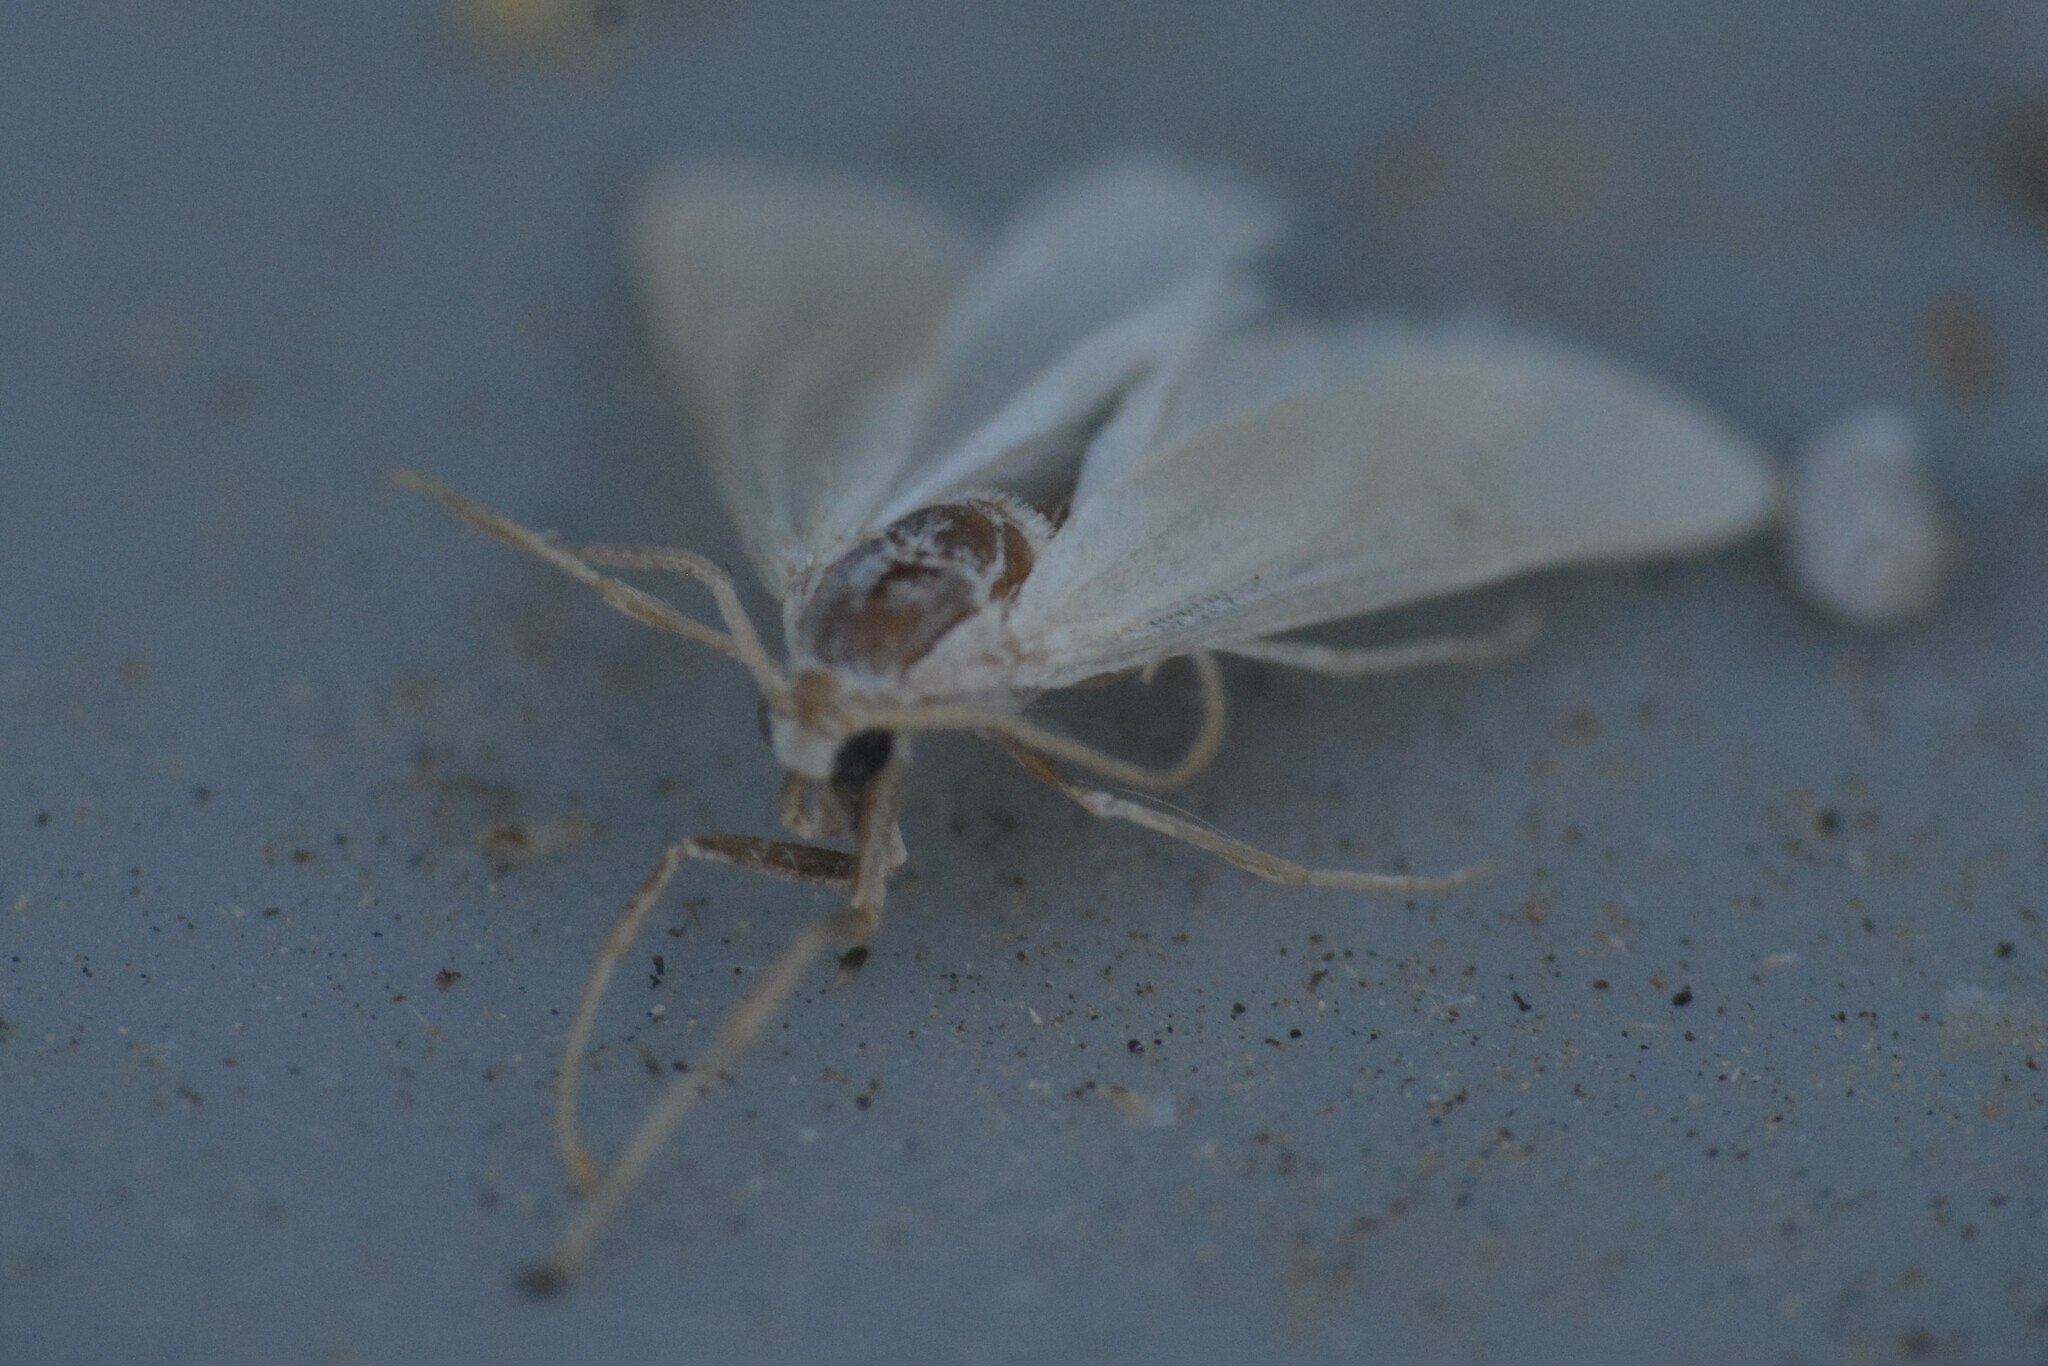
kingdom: Animalia
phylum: Arthropoda
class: Insecta
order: Lepidoptera
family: Crambidae
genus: Acentria
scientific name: Acentria ephemerella
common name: European water moth
